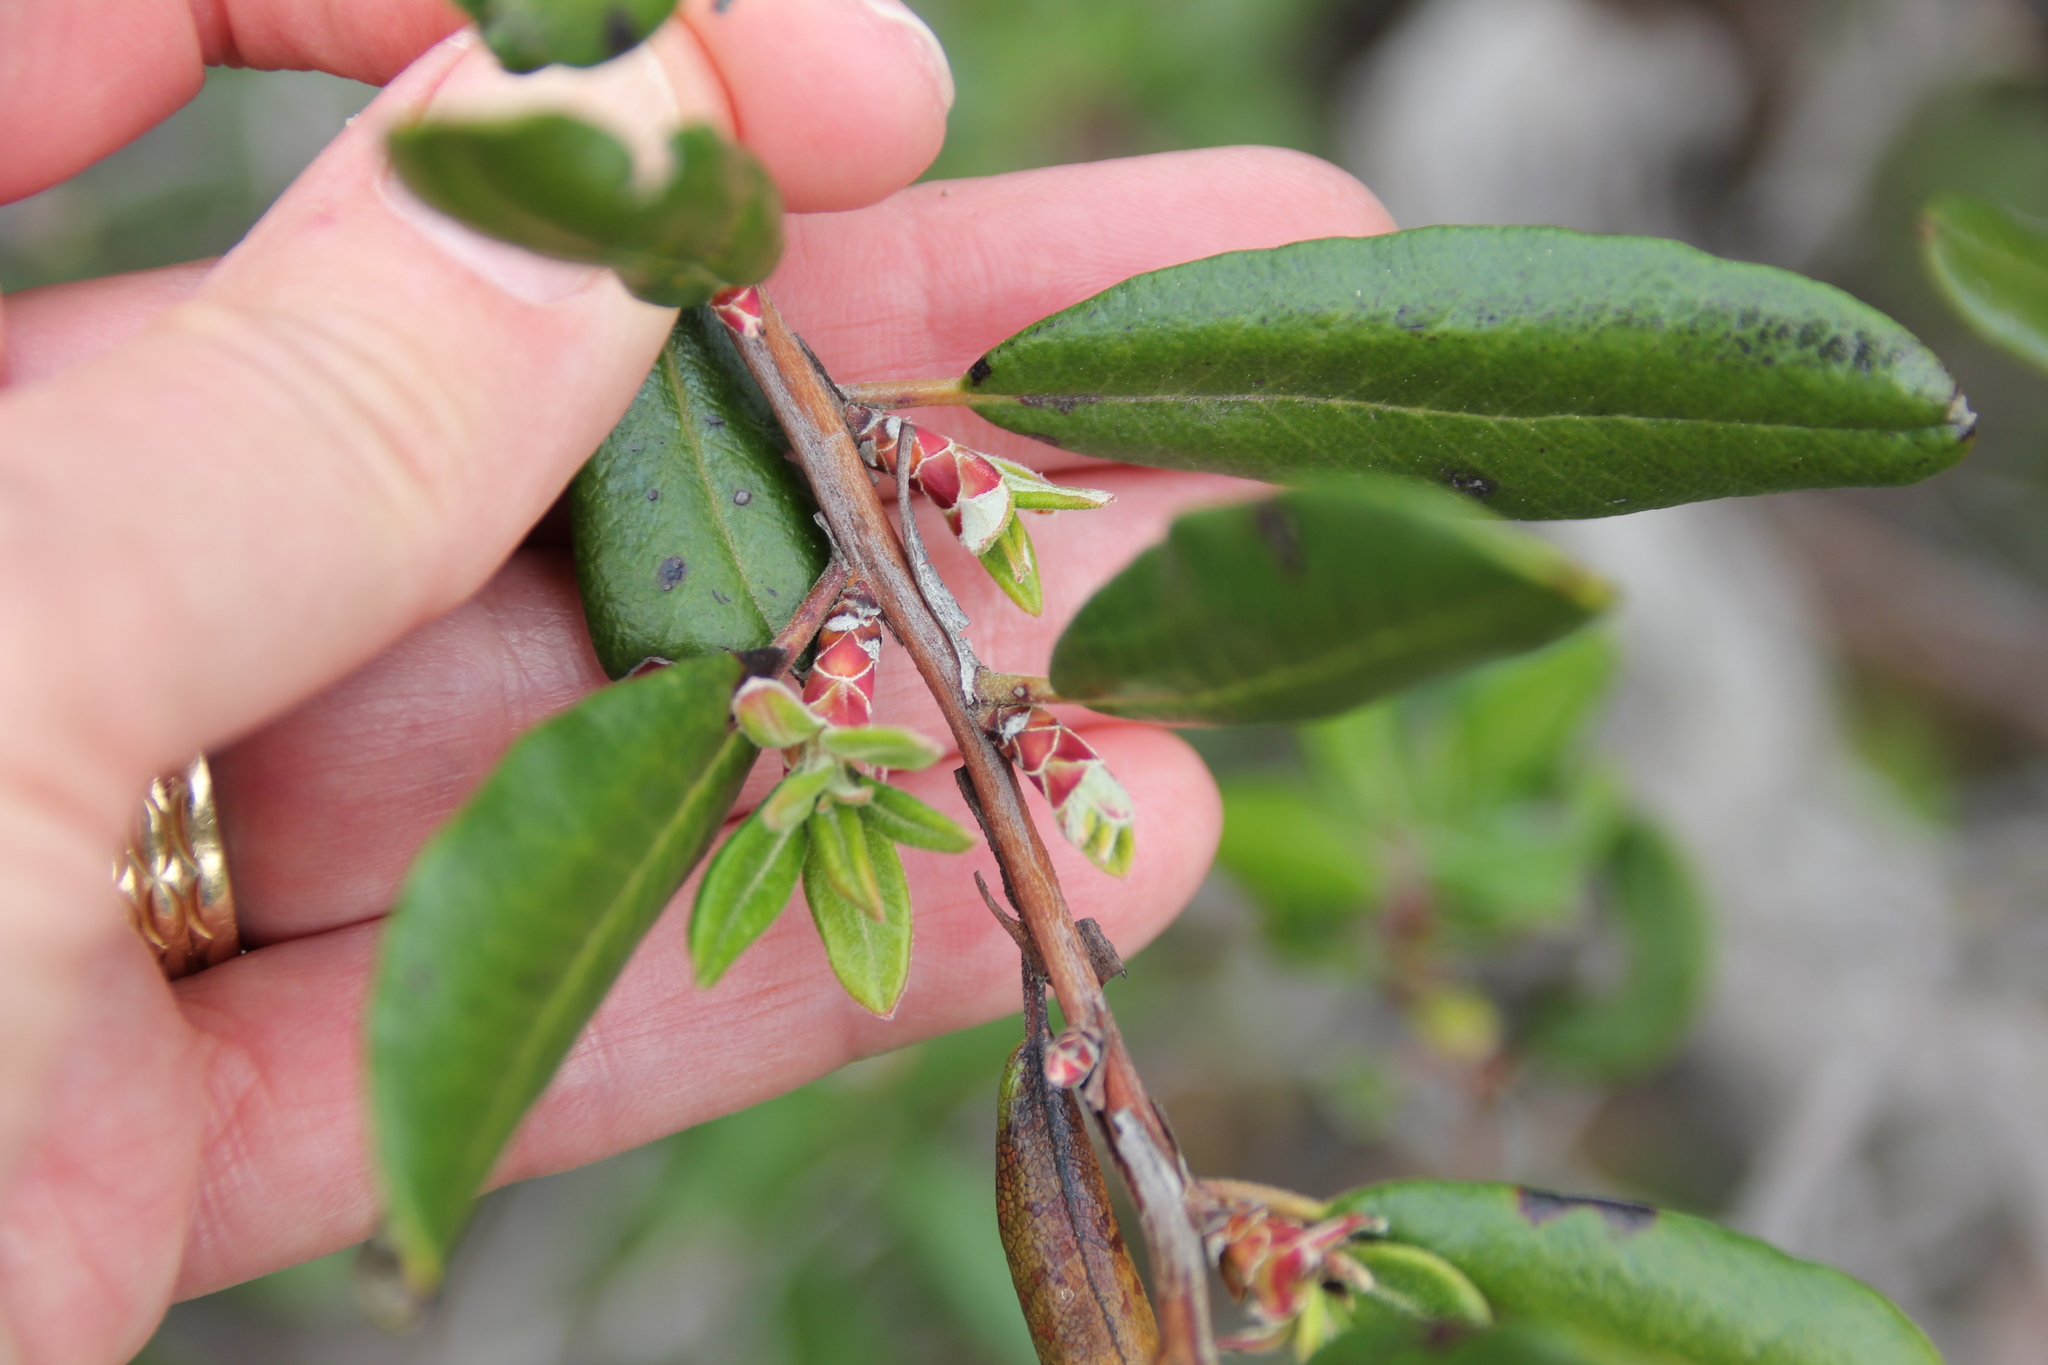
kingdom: Plantae
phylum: Tracheophyta
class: Magnoliopsida
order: Ericales
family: Ericaceae
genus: Arctostaphylos
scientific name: Arctostaphylos bicolor
